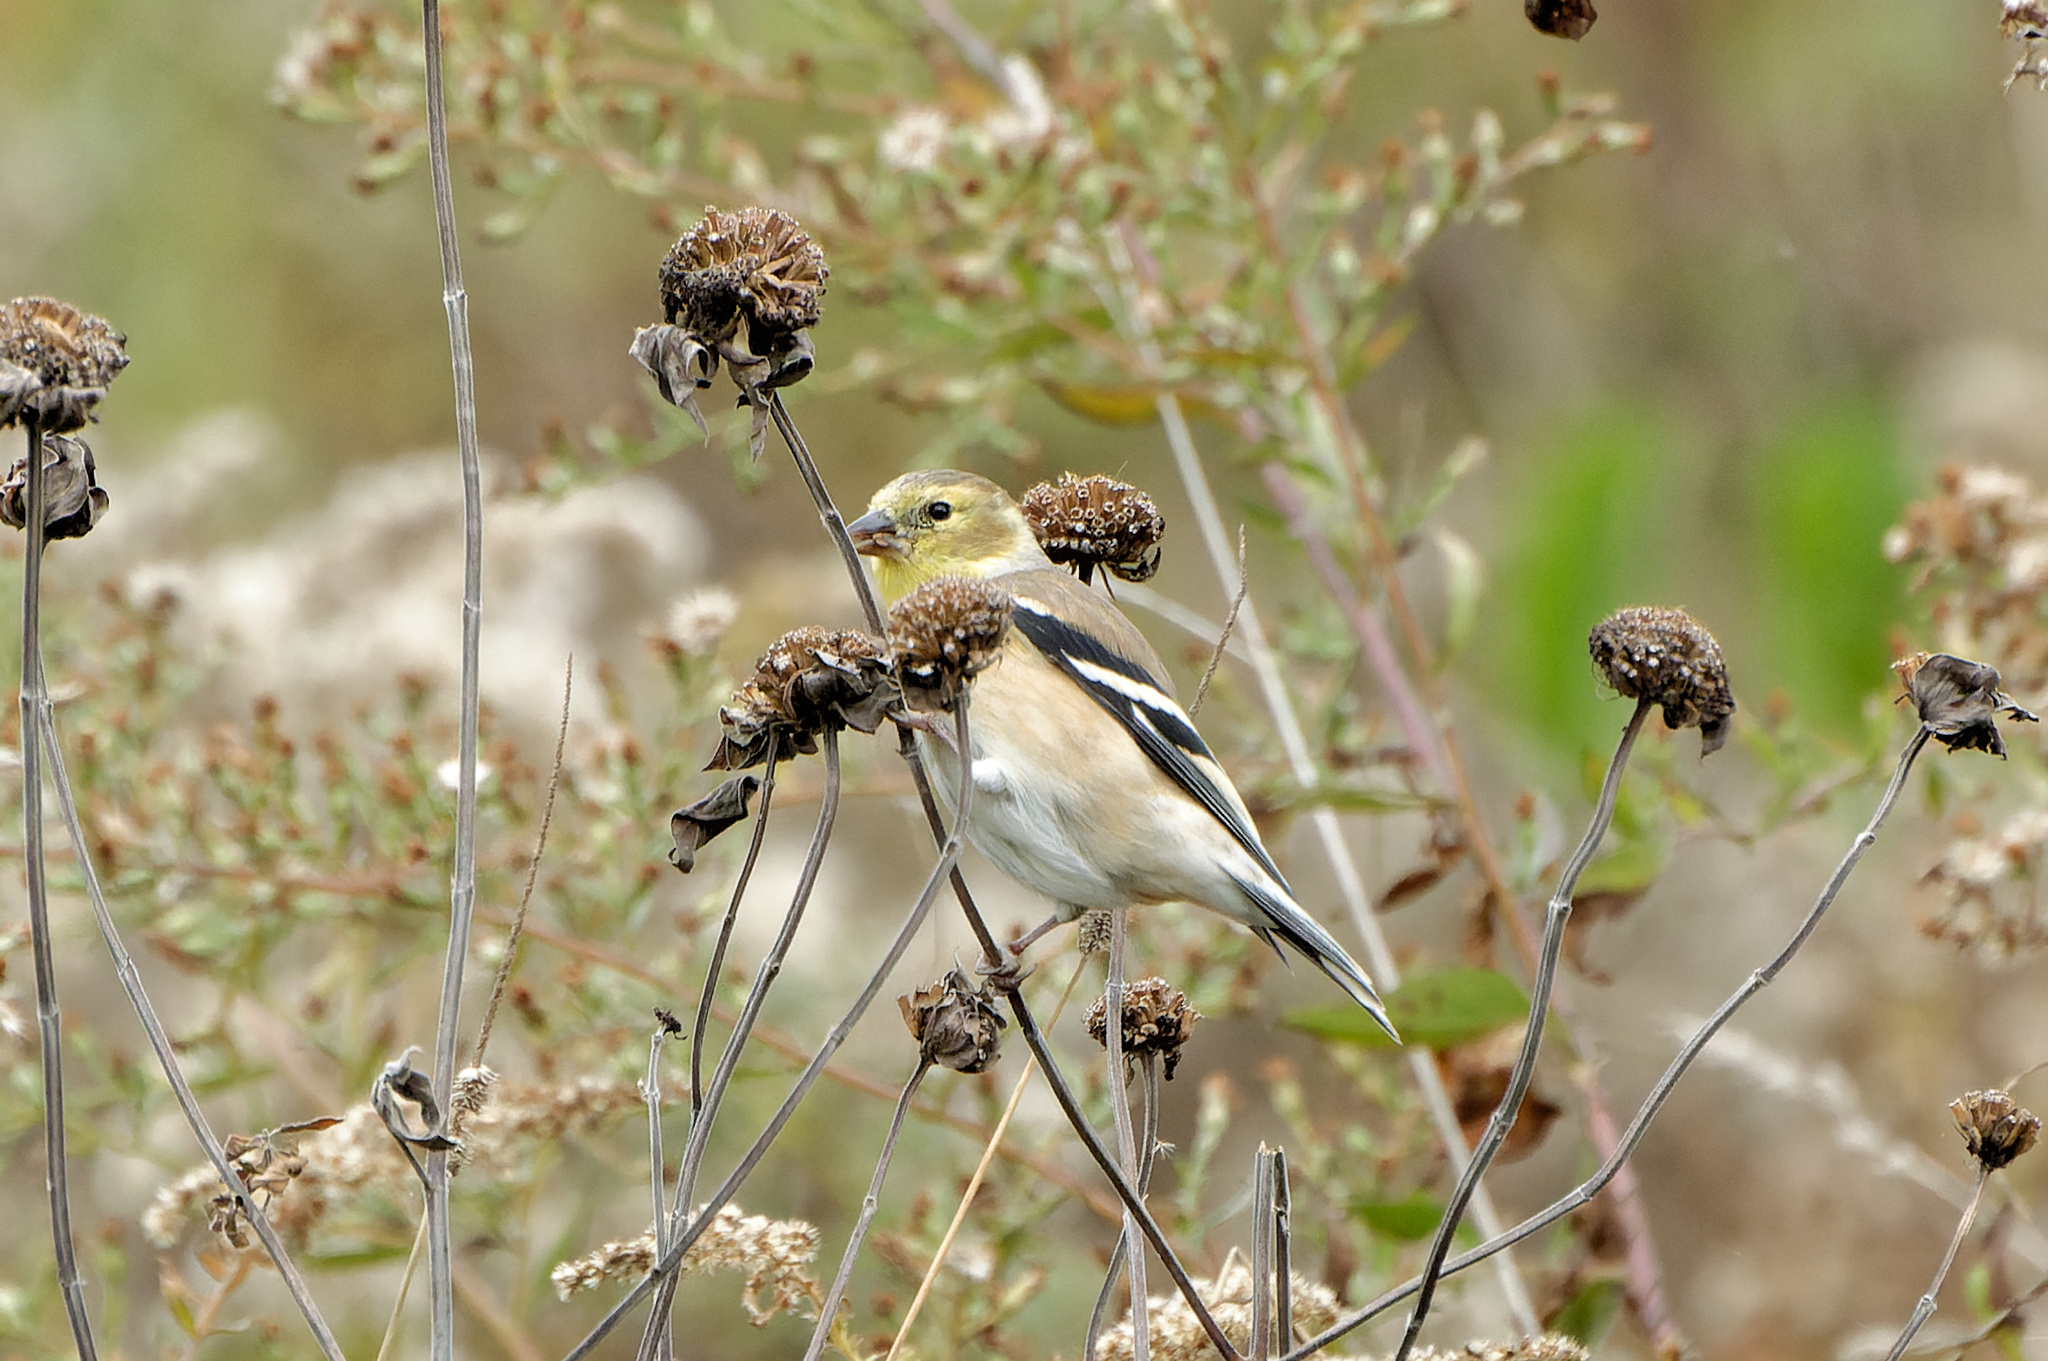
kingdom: Animalia
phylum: Chordata
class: Aves
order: Passeriformes
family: Fringillidae
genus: Spinus
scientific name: Spinus tristis
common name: American goldfinch
